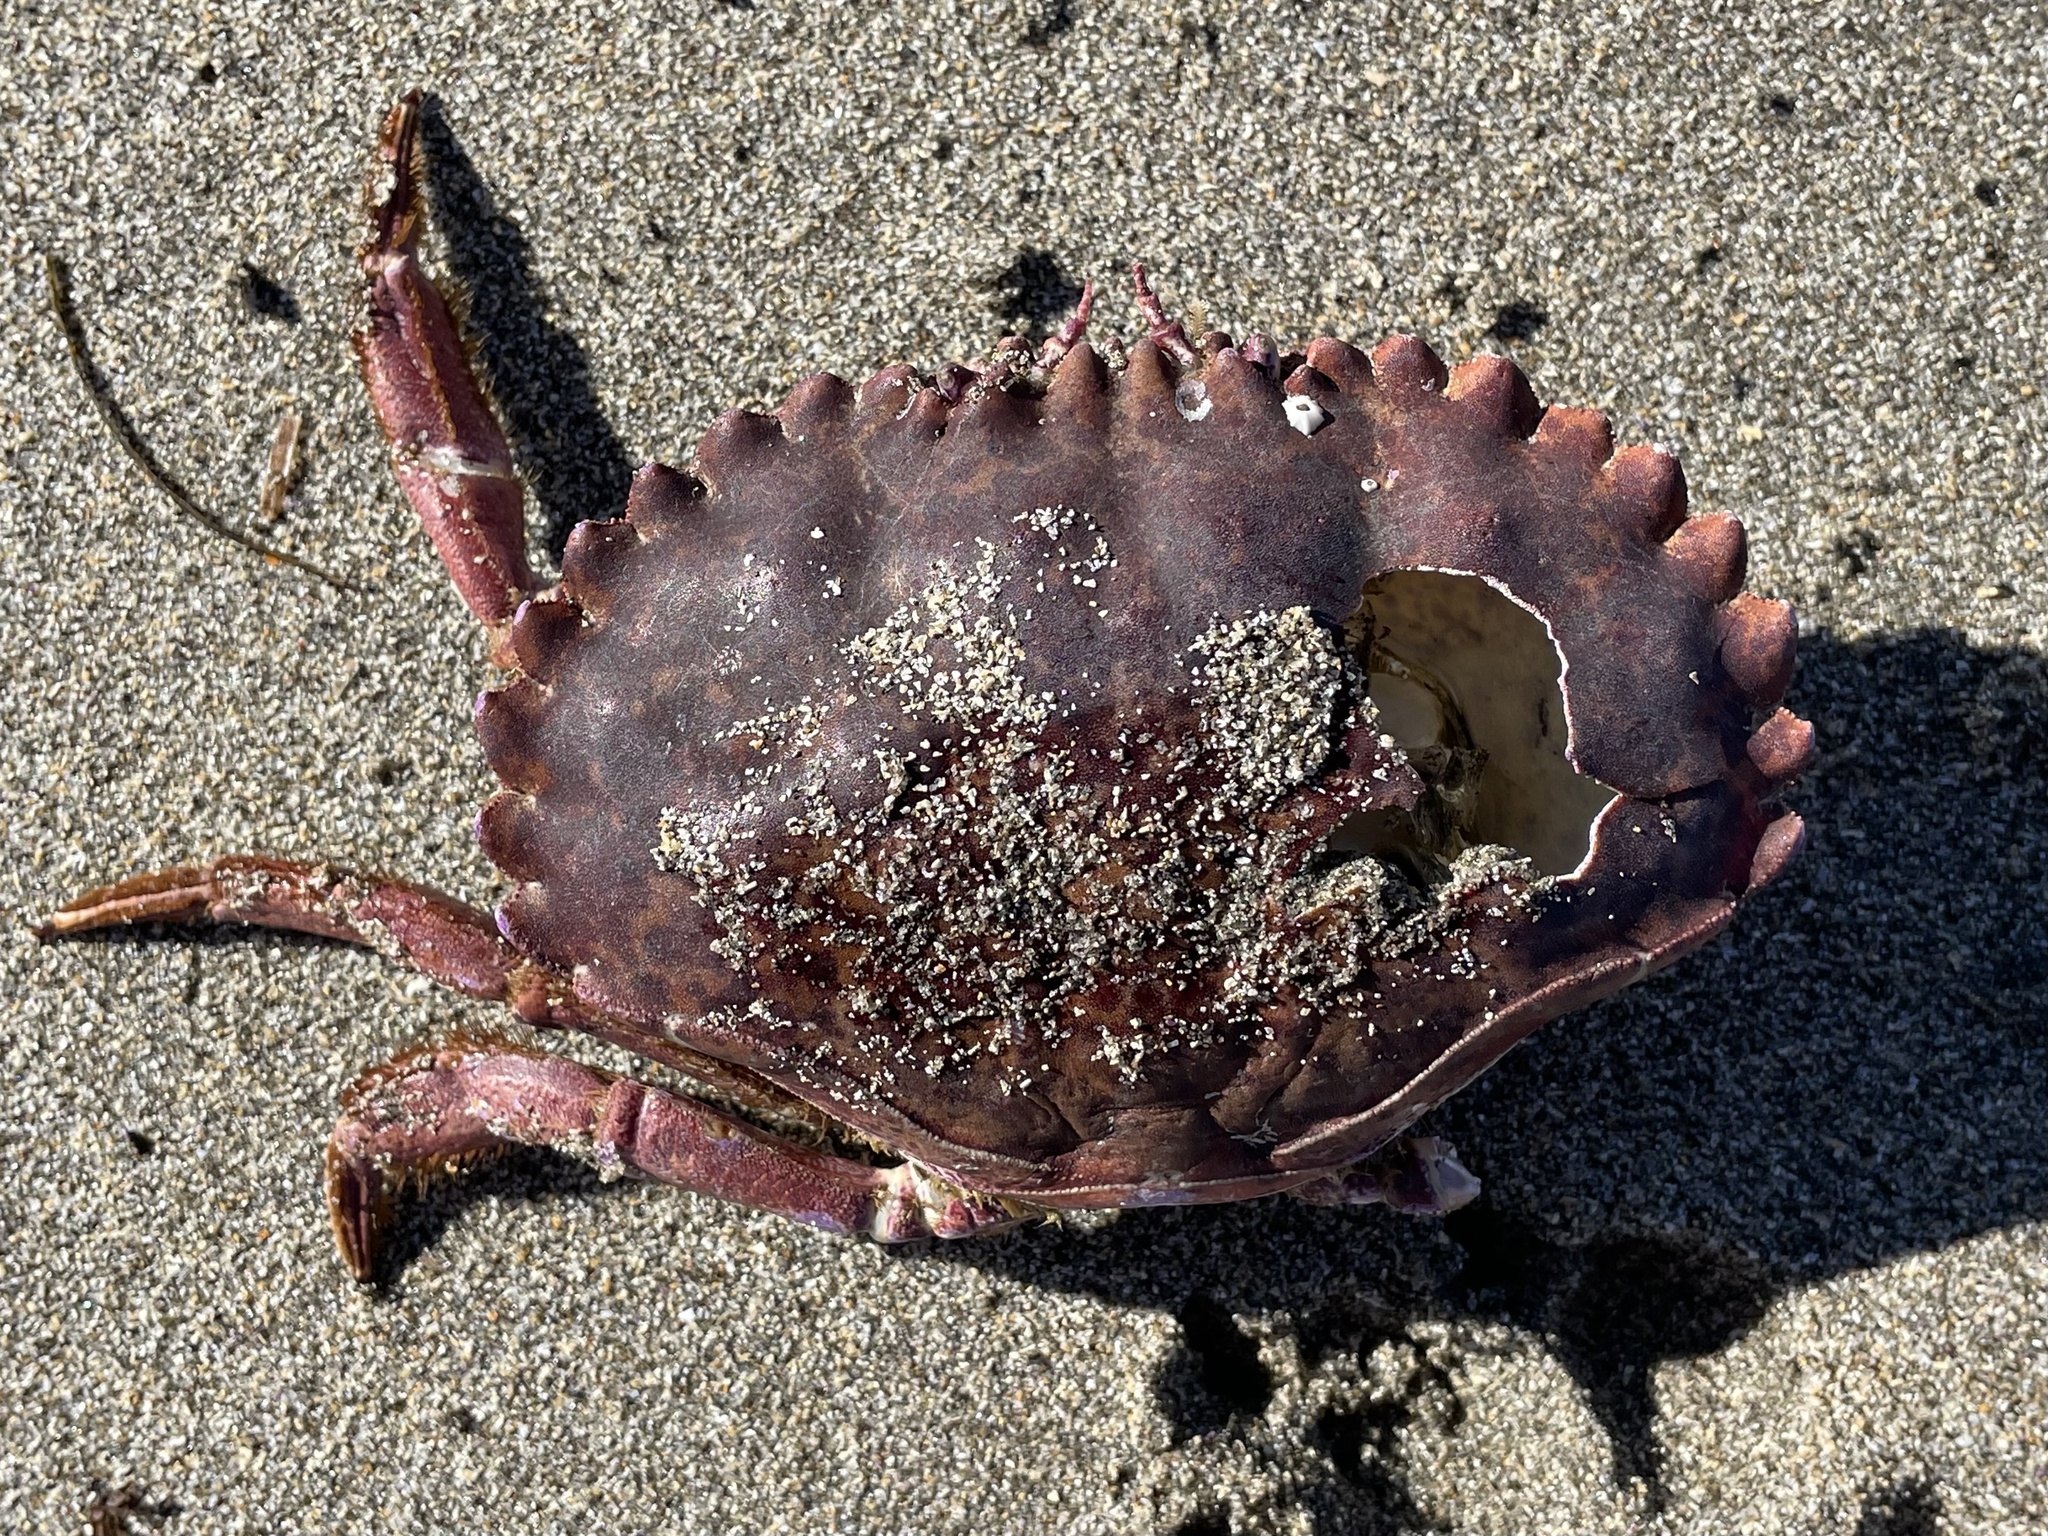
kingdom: Animalia
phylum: Arthropoda
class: Malacostraca
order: Decapoda
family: Cancridae
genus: Romaleon
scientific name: Romaleon antennarium
